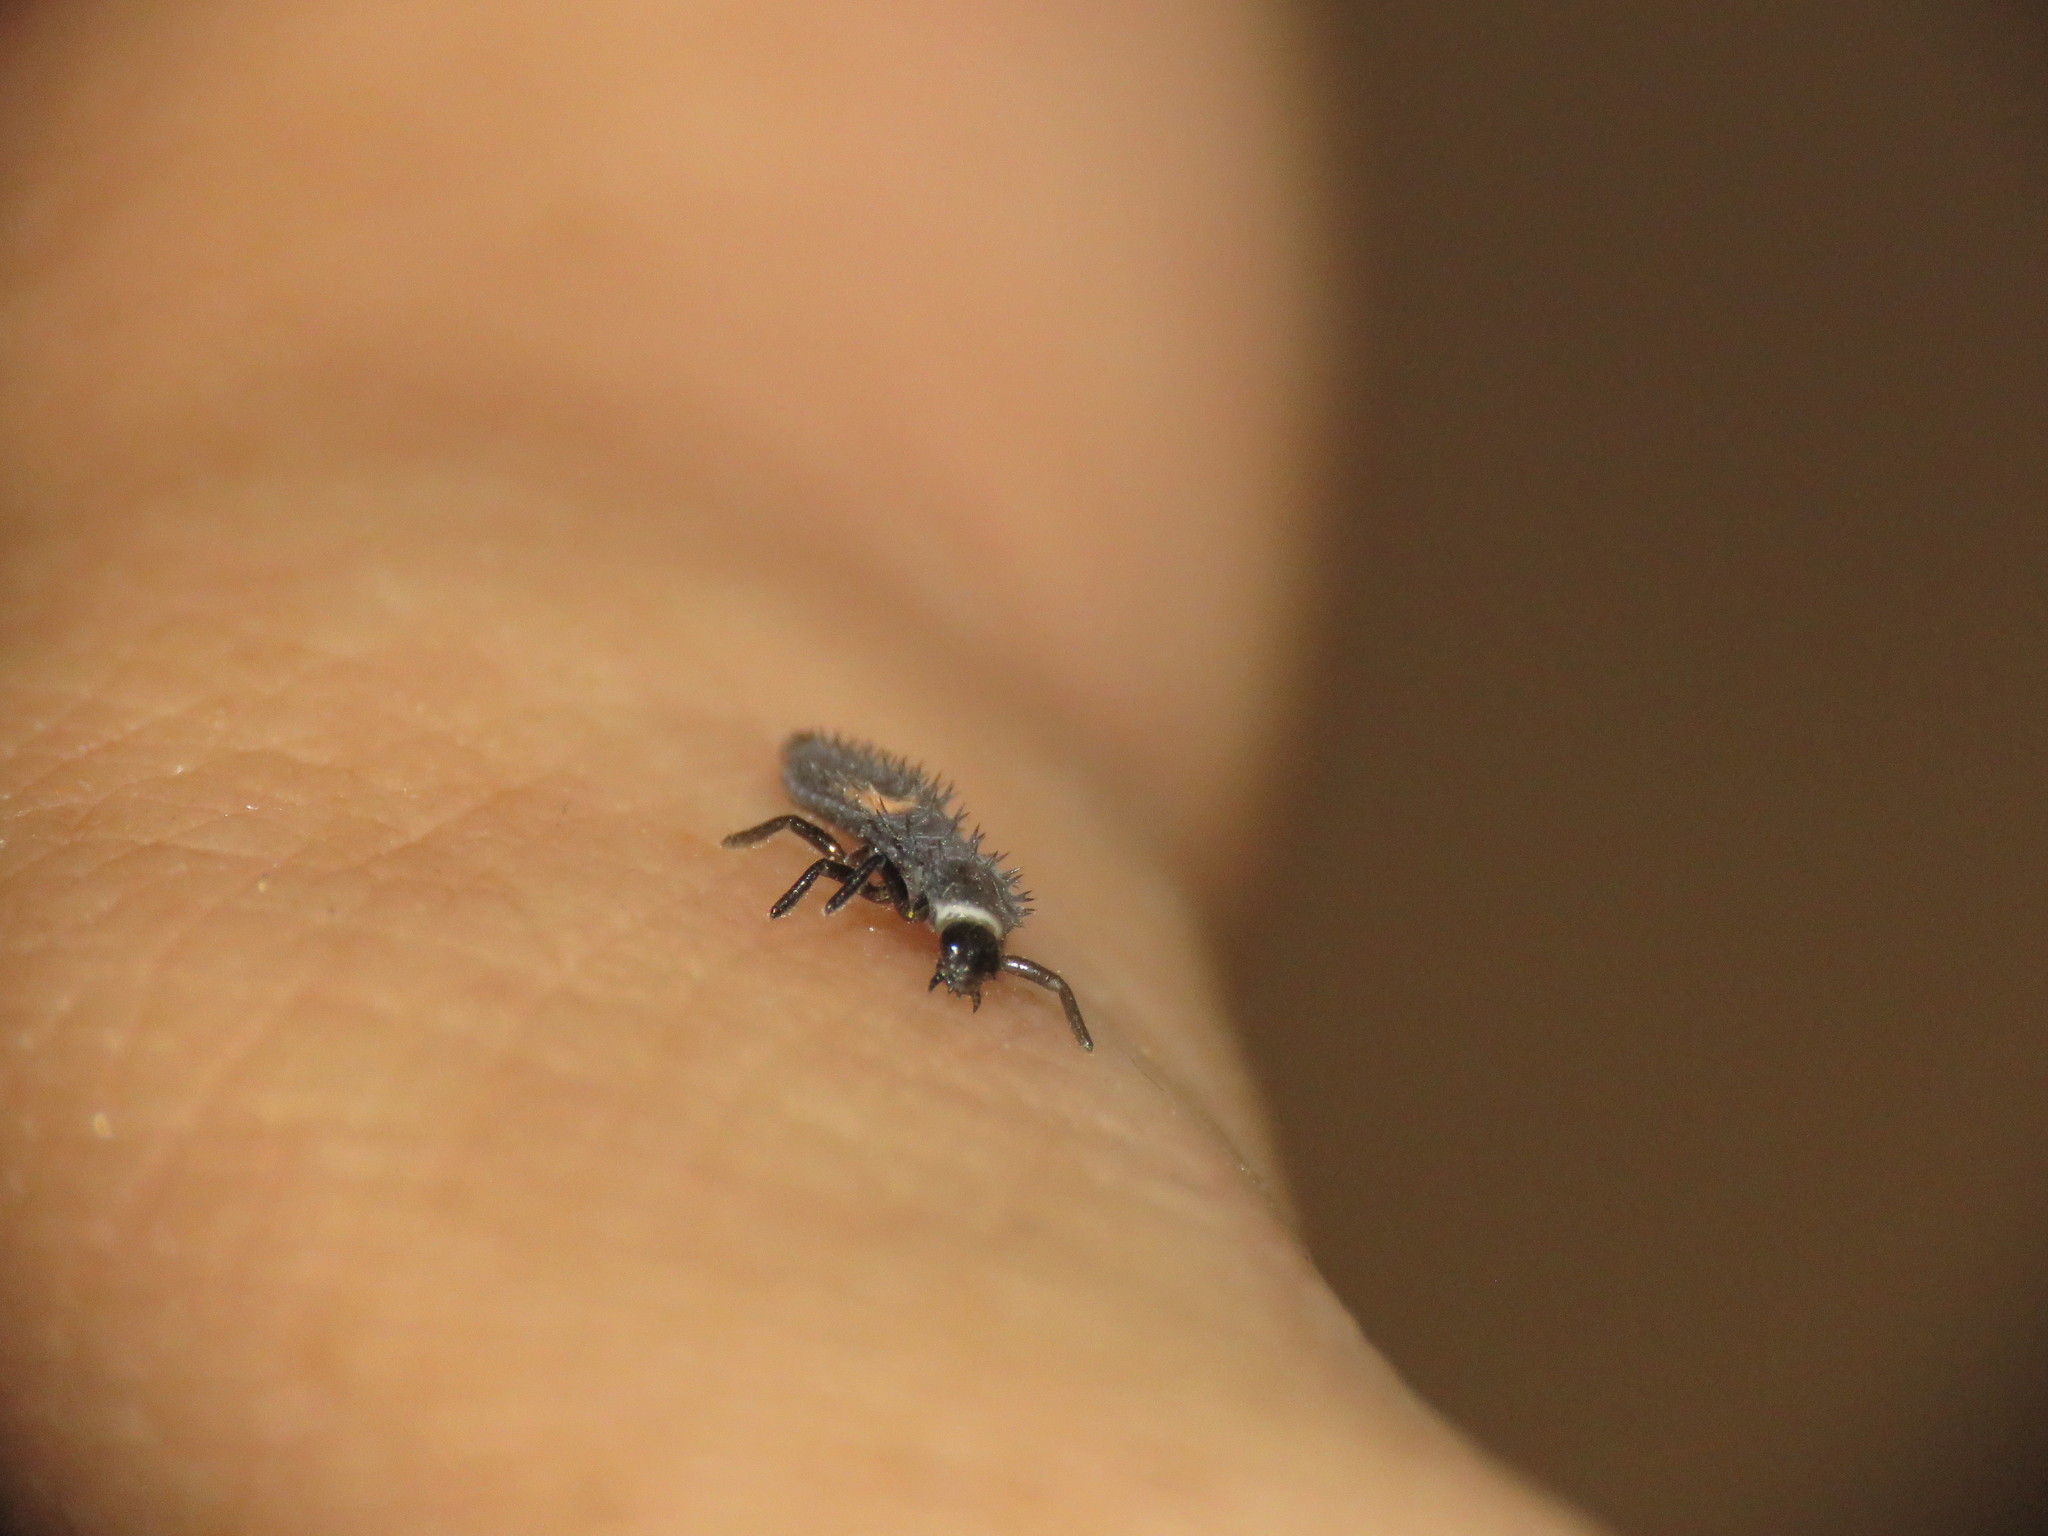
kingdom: Animalia
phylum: Arthropoda
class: Insecta
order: Coleoptera
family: Coccinellidae
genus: Harmonia
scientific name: Harmonia axyridis
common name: Harlequin ladybird
